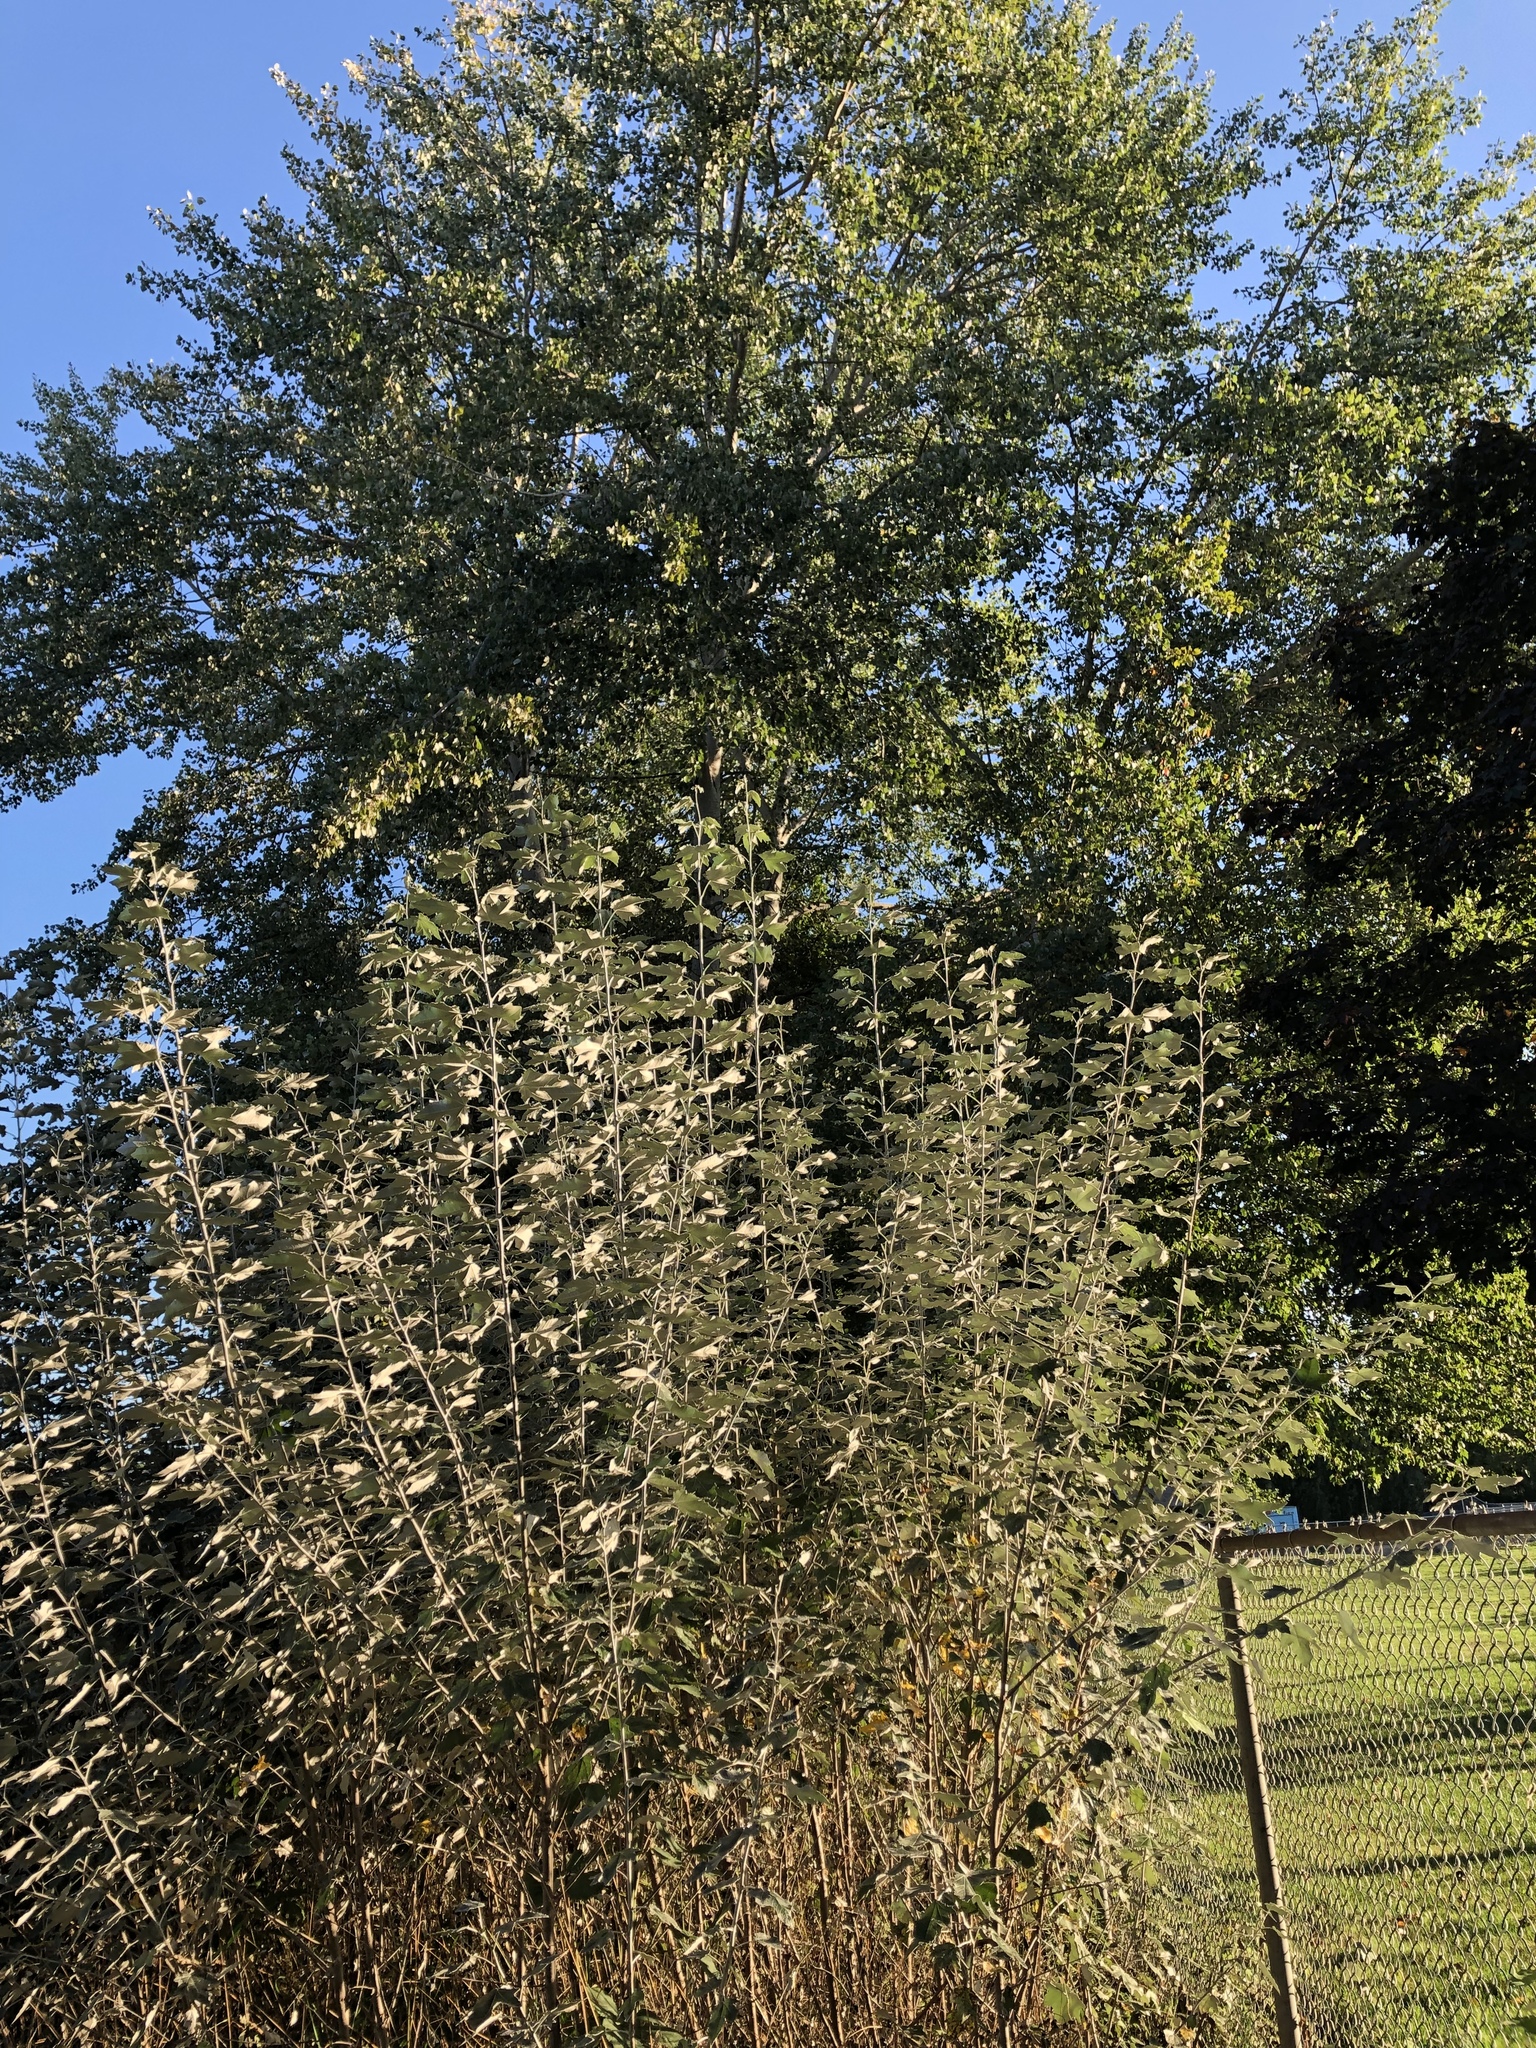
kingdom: Plantae
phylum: Tracheophyta
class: Magnoliopsida
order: Malpighiales
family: Salicaceae
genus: Populus
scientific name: Populus alba
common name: White poplar
